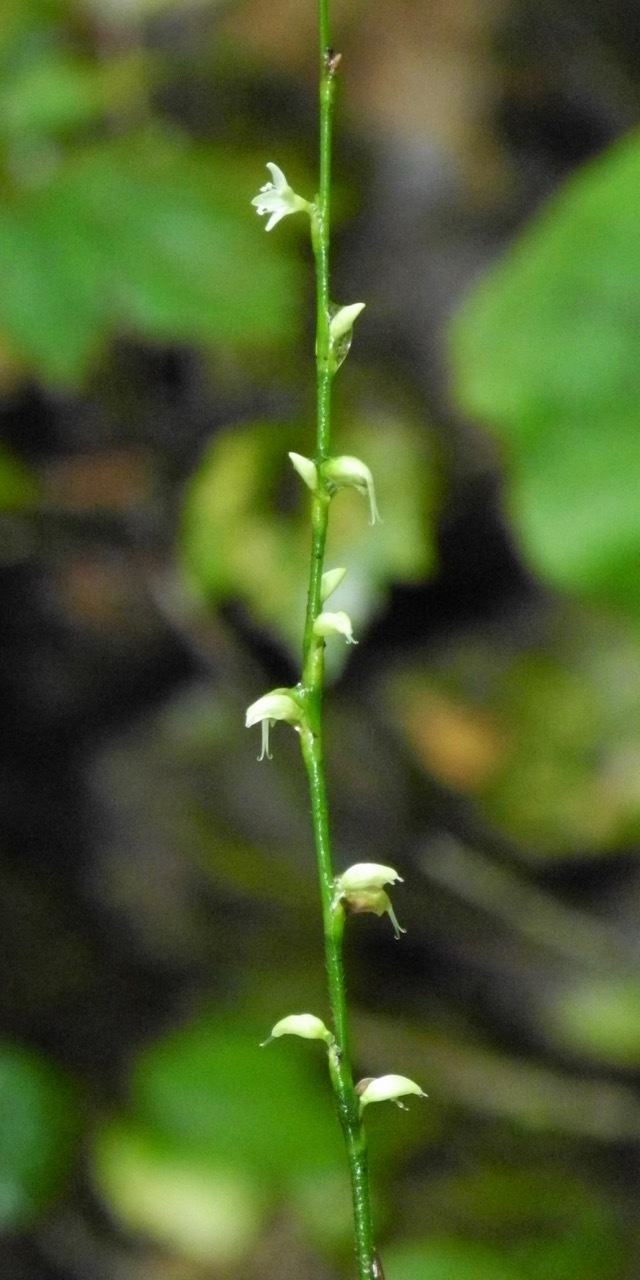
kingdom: Plantae
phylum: Tracheophyta
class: Magnoliopsida
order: Caryophyllales
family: Polygonaceae
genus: Persicaria
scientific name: Persicaria virginiana
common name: Jumpseed
